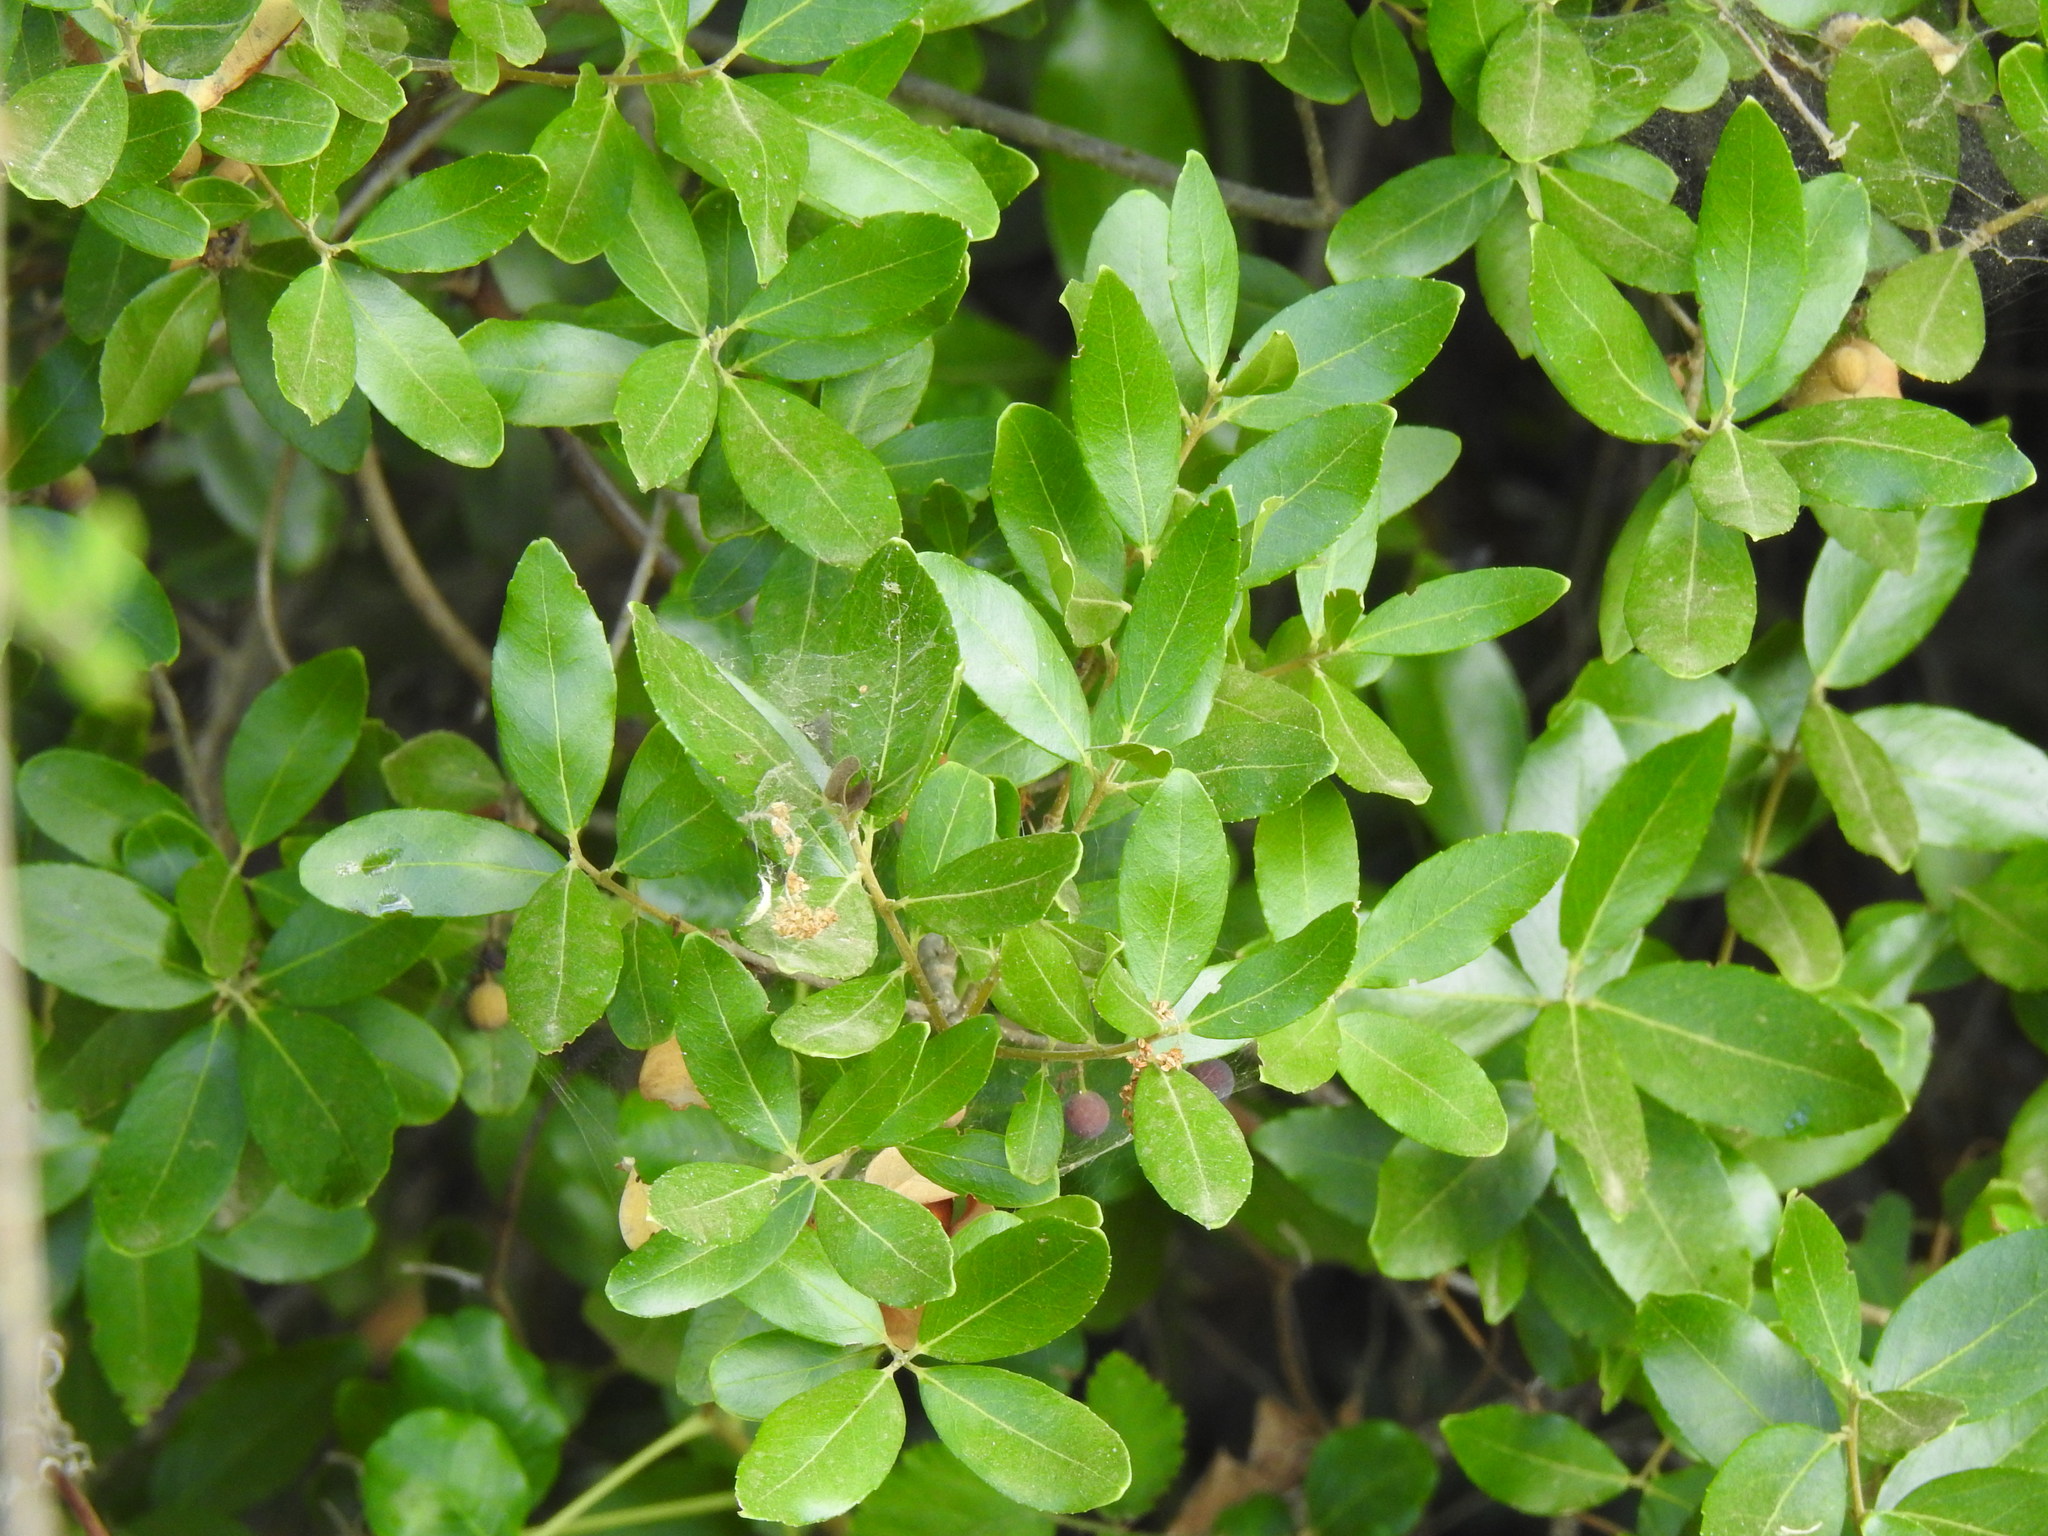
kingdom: Plantae
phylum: Tracheophyta
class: Magnoliopsida
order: Lamiales
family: Oleaceae
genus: Phillyrea
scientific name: Phillyrea latifolia
